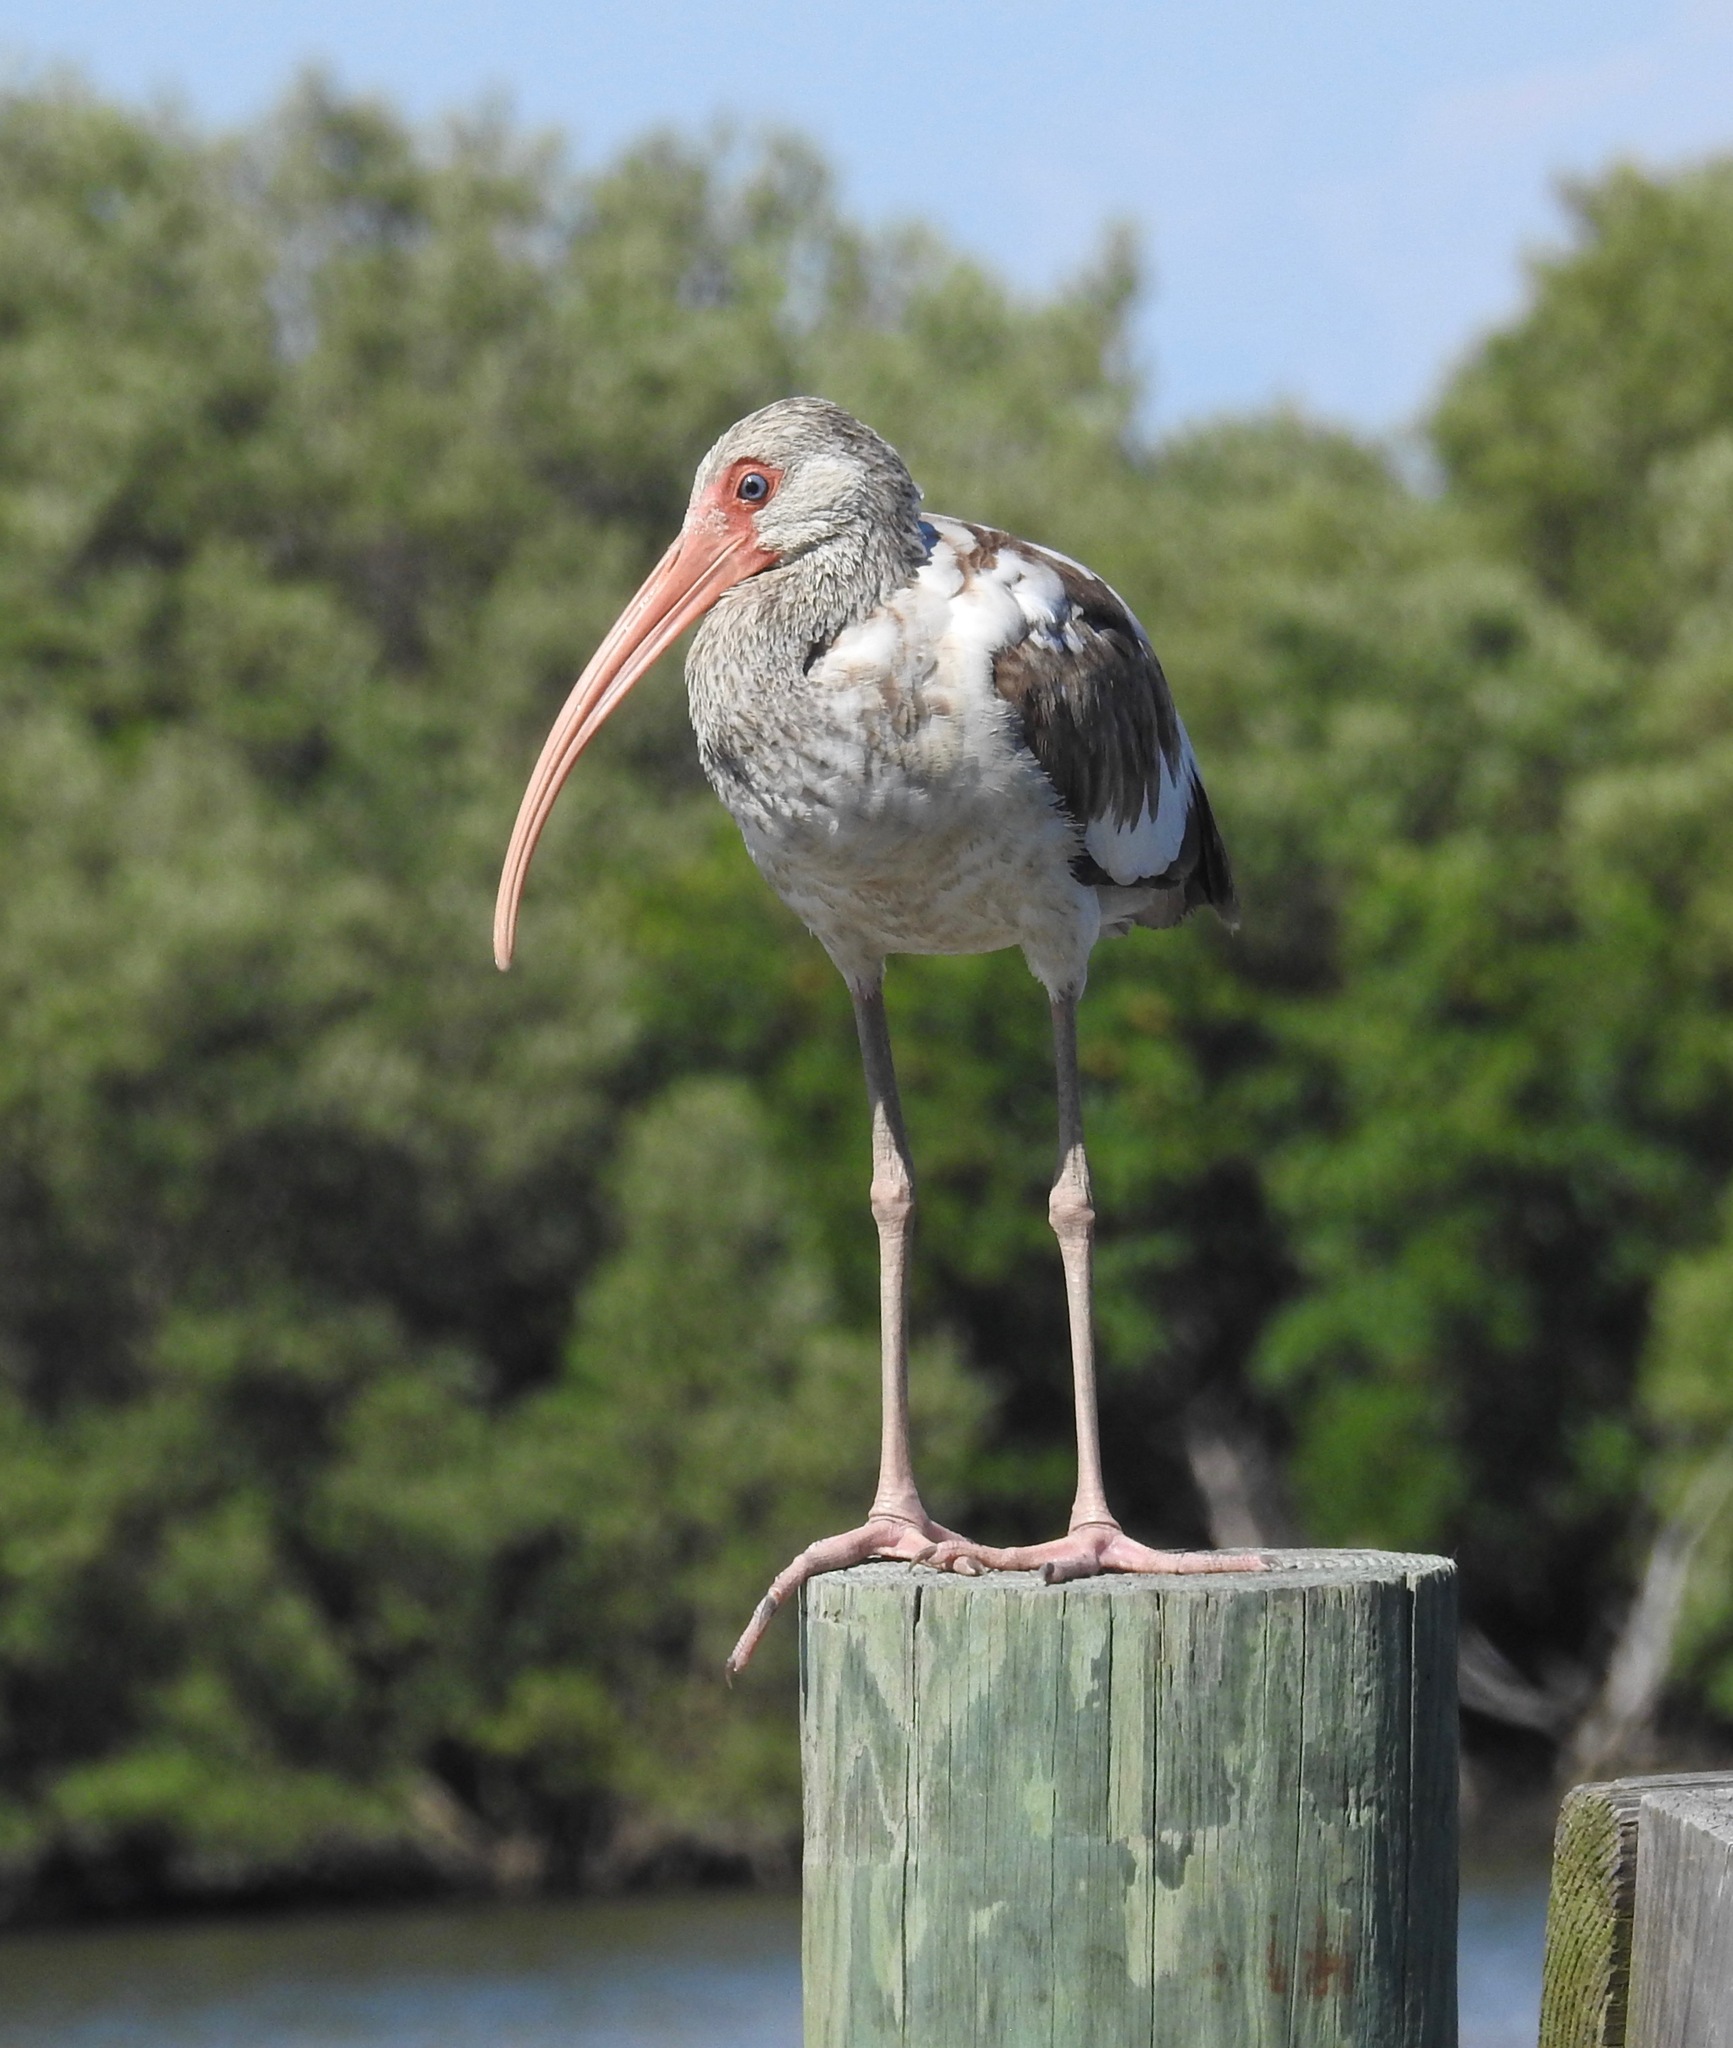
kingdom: Animalia
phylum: Chordata
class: Aves
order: Pelecaniformes
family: Threskiornithidae
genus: Eudocimus
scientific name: Eudocimus albus
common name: White ibis
